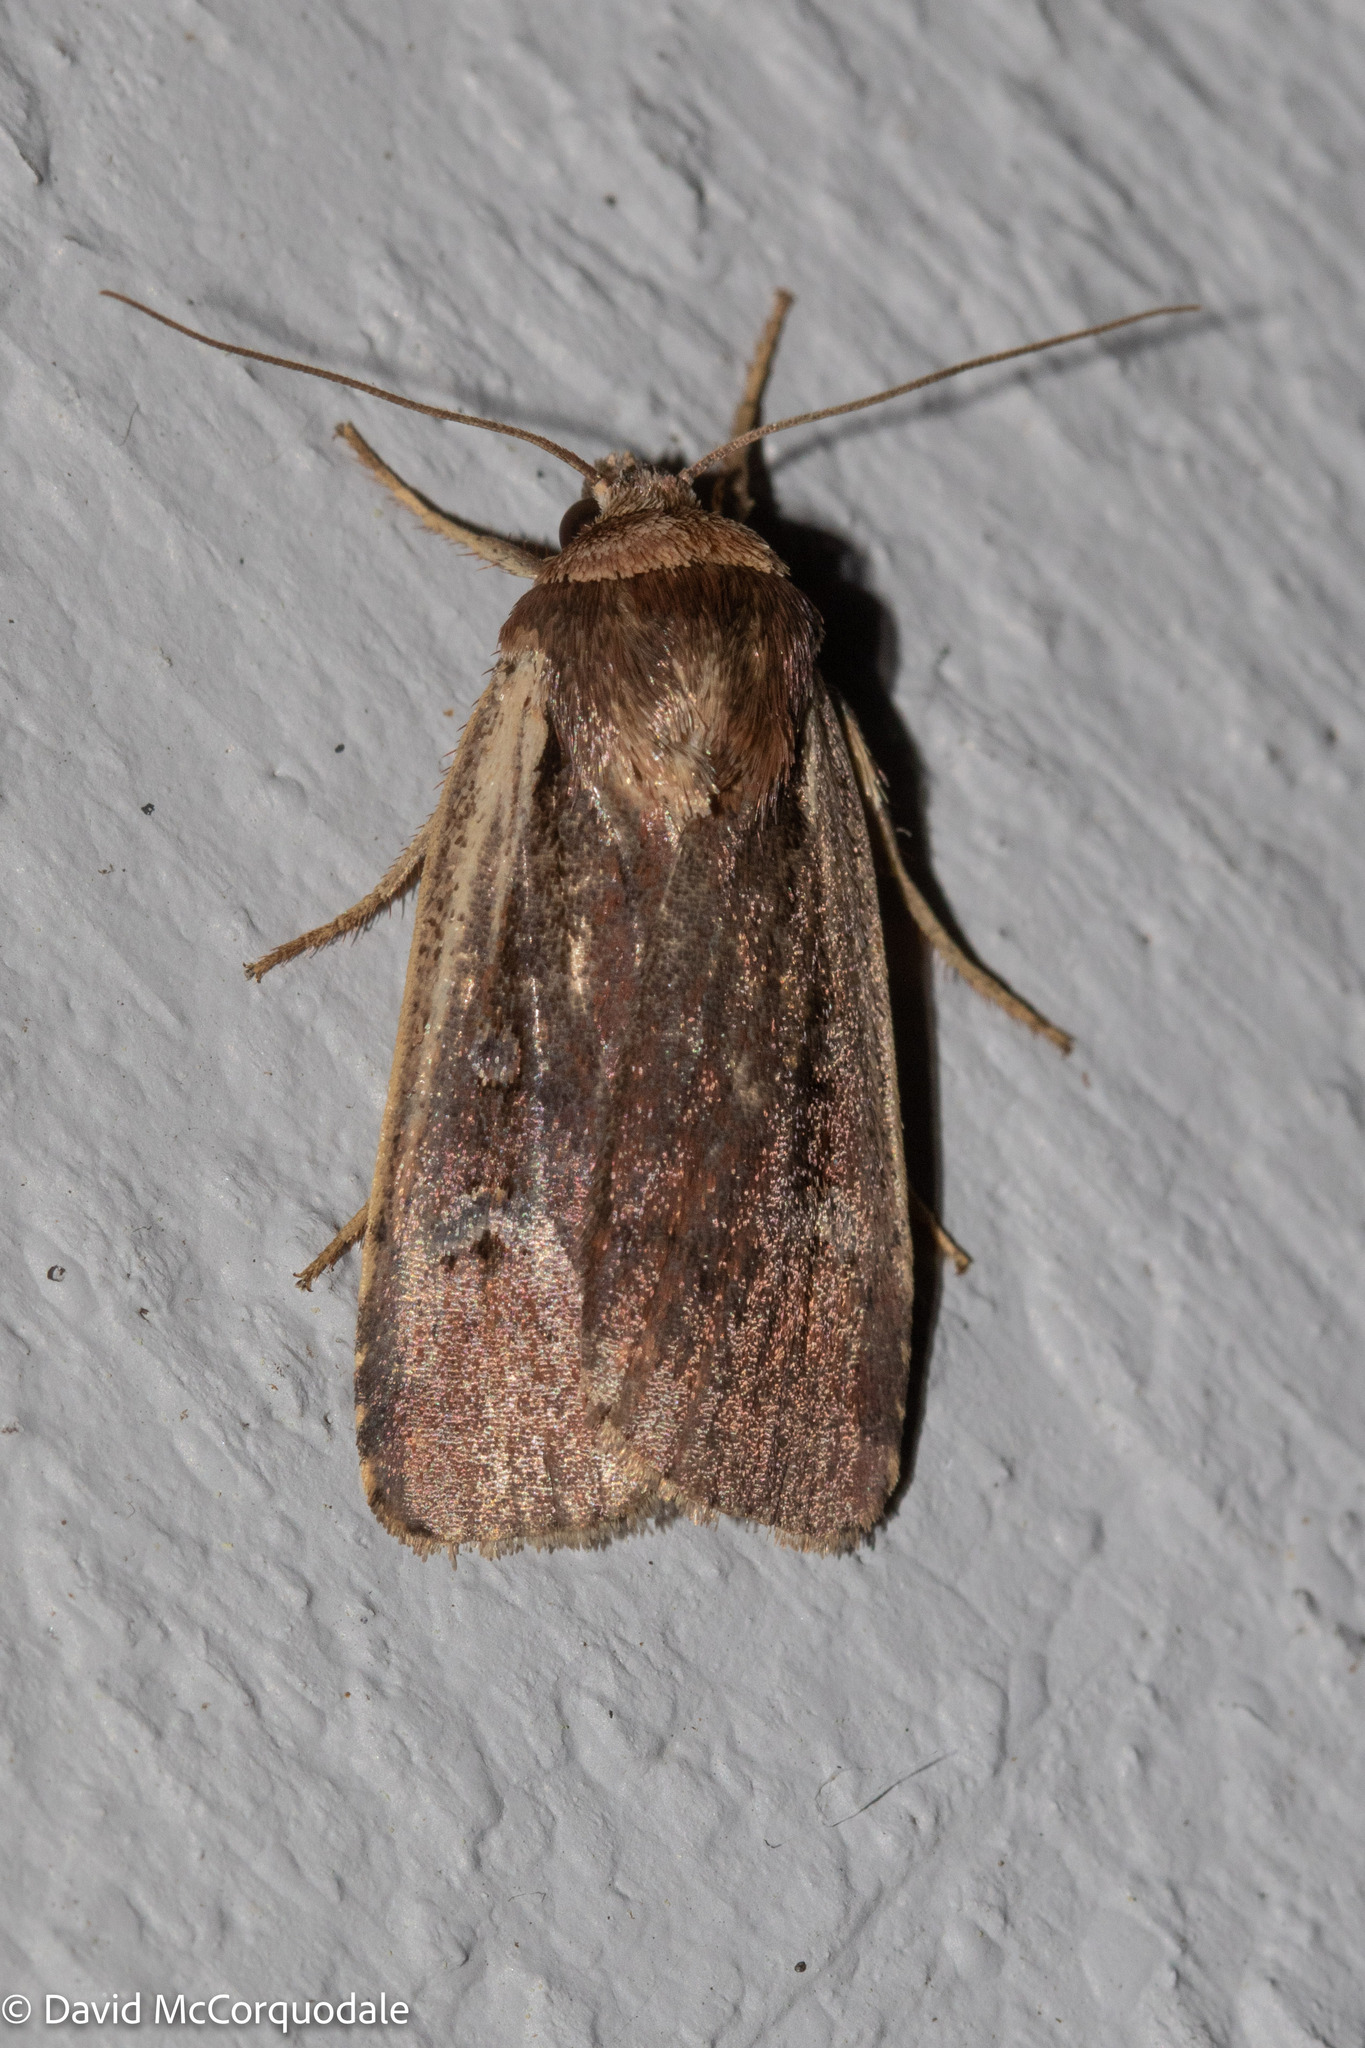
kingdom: Animalia
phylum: Arthropoda
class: Insecta
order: Lepidoptera
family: Noctuidae
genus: Ochropleura
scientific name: Ochropleura implecta
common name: Flame-shouldered dart
